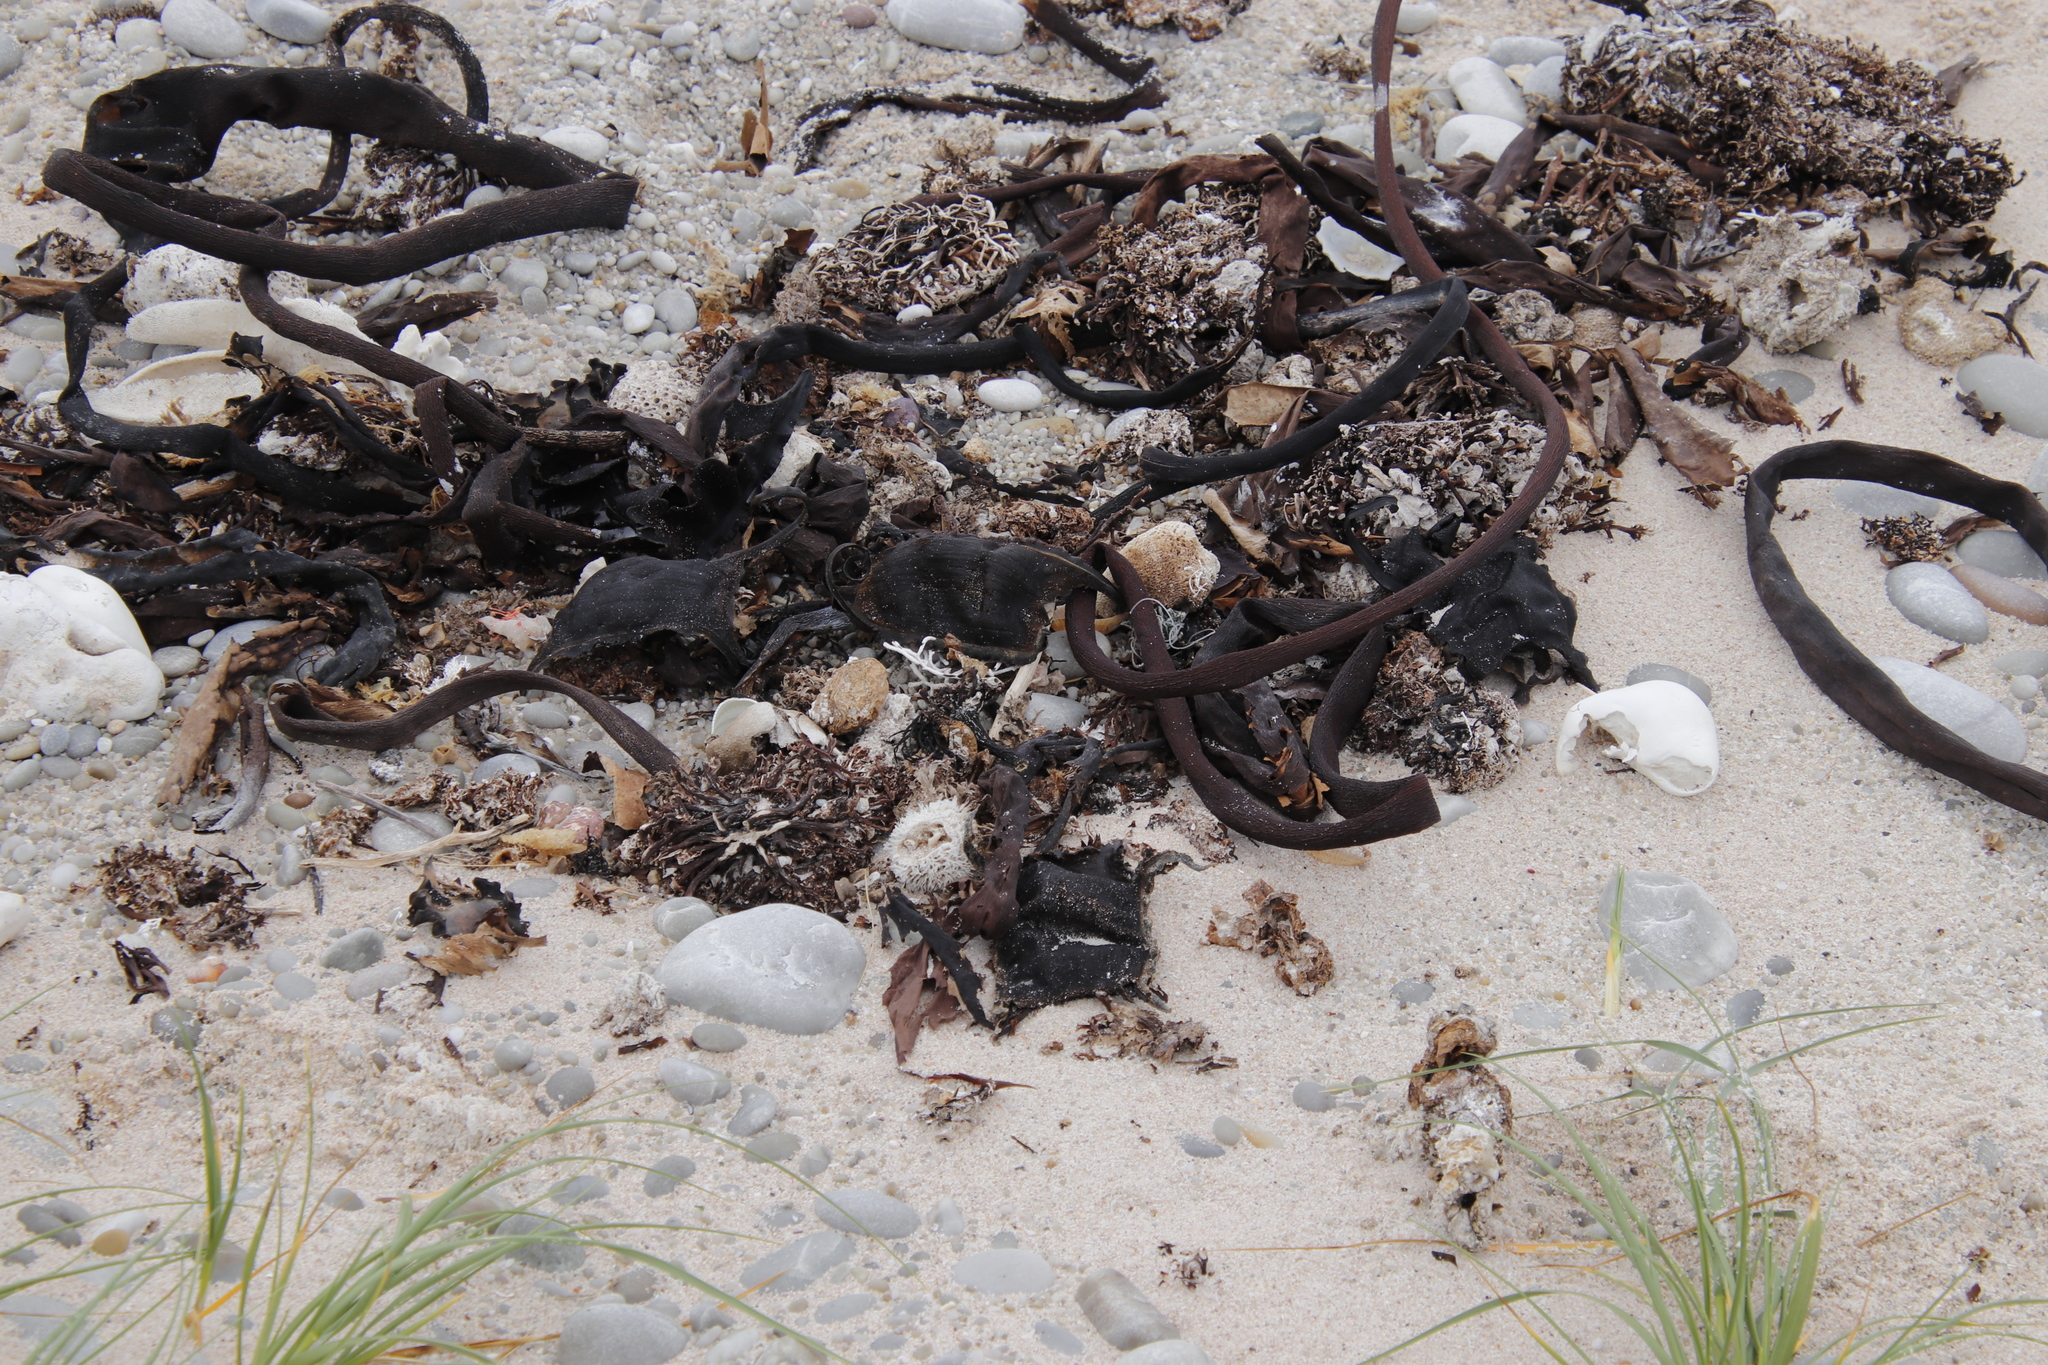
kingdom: Chromista
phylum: Ochrophyta
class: Phaeophyceae
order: Laminariales
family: Lessoniaceae
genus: Ecklonia
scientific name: Ecklonia
